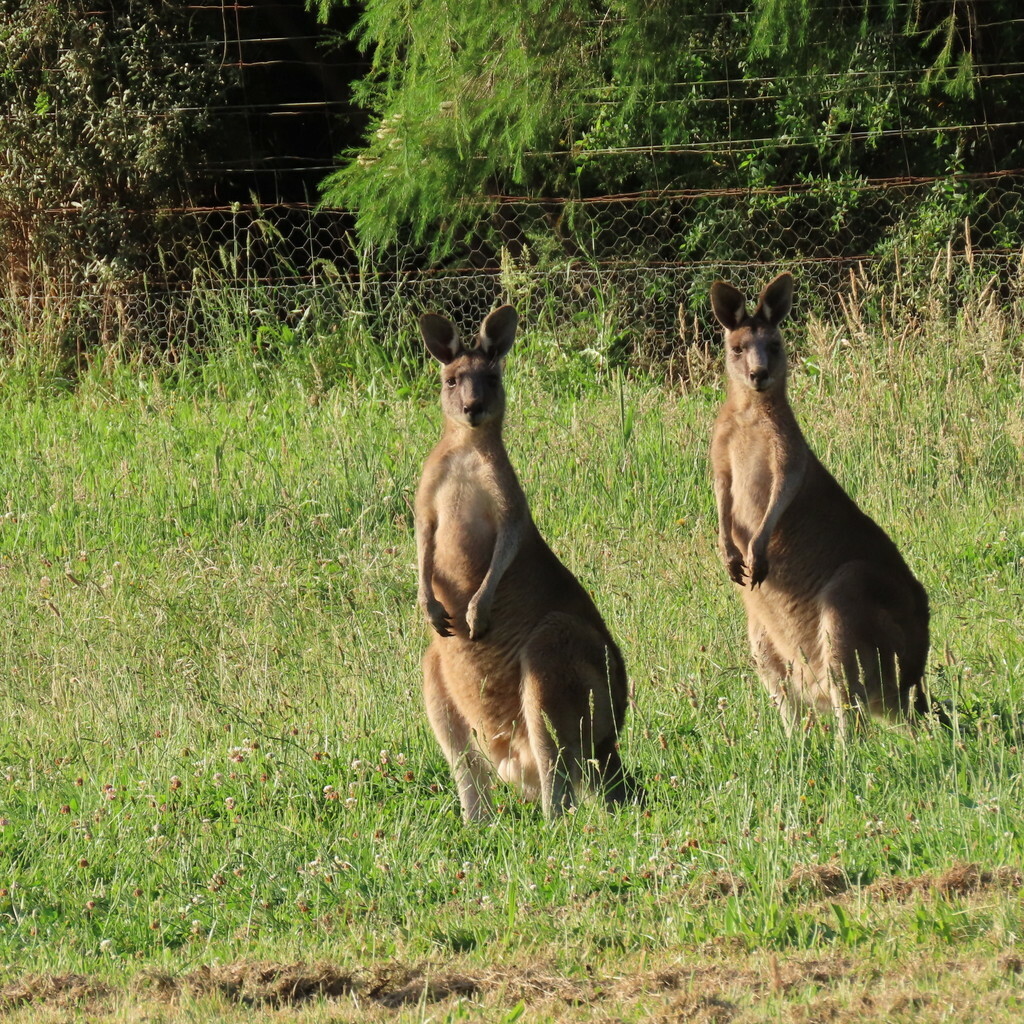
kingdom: Animalia
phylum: Chordata
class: Mammalia
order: Diprotodontia
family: Macropodidae
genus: Macropus
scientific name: Macropus giganteus
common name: Eastern grey kangaroo
